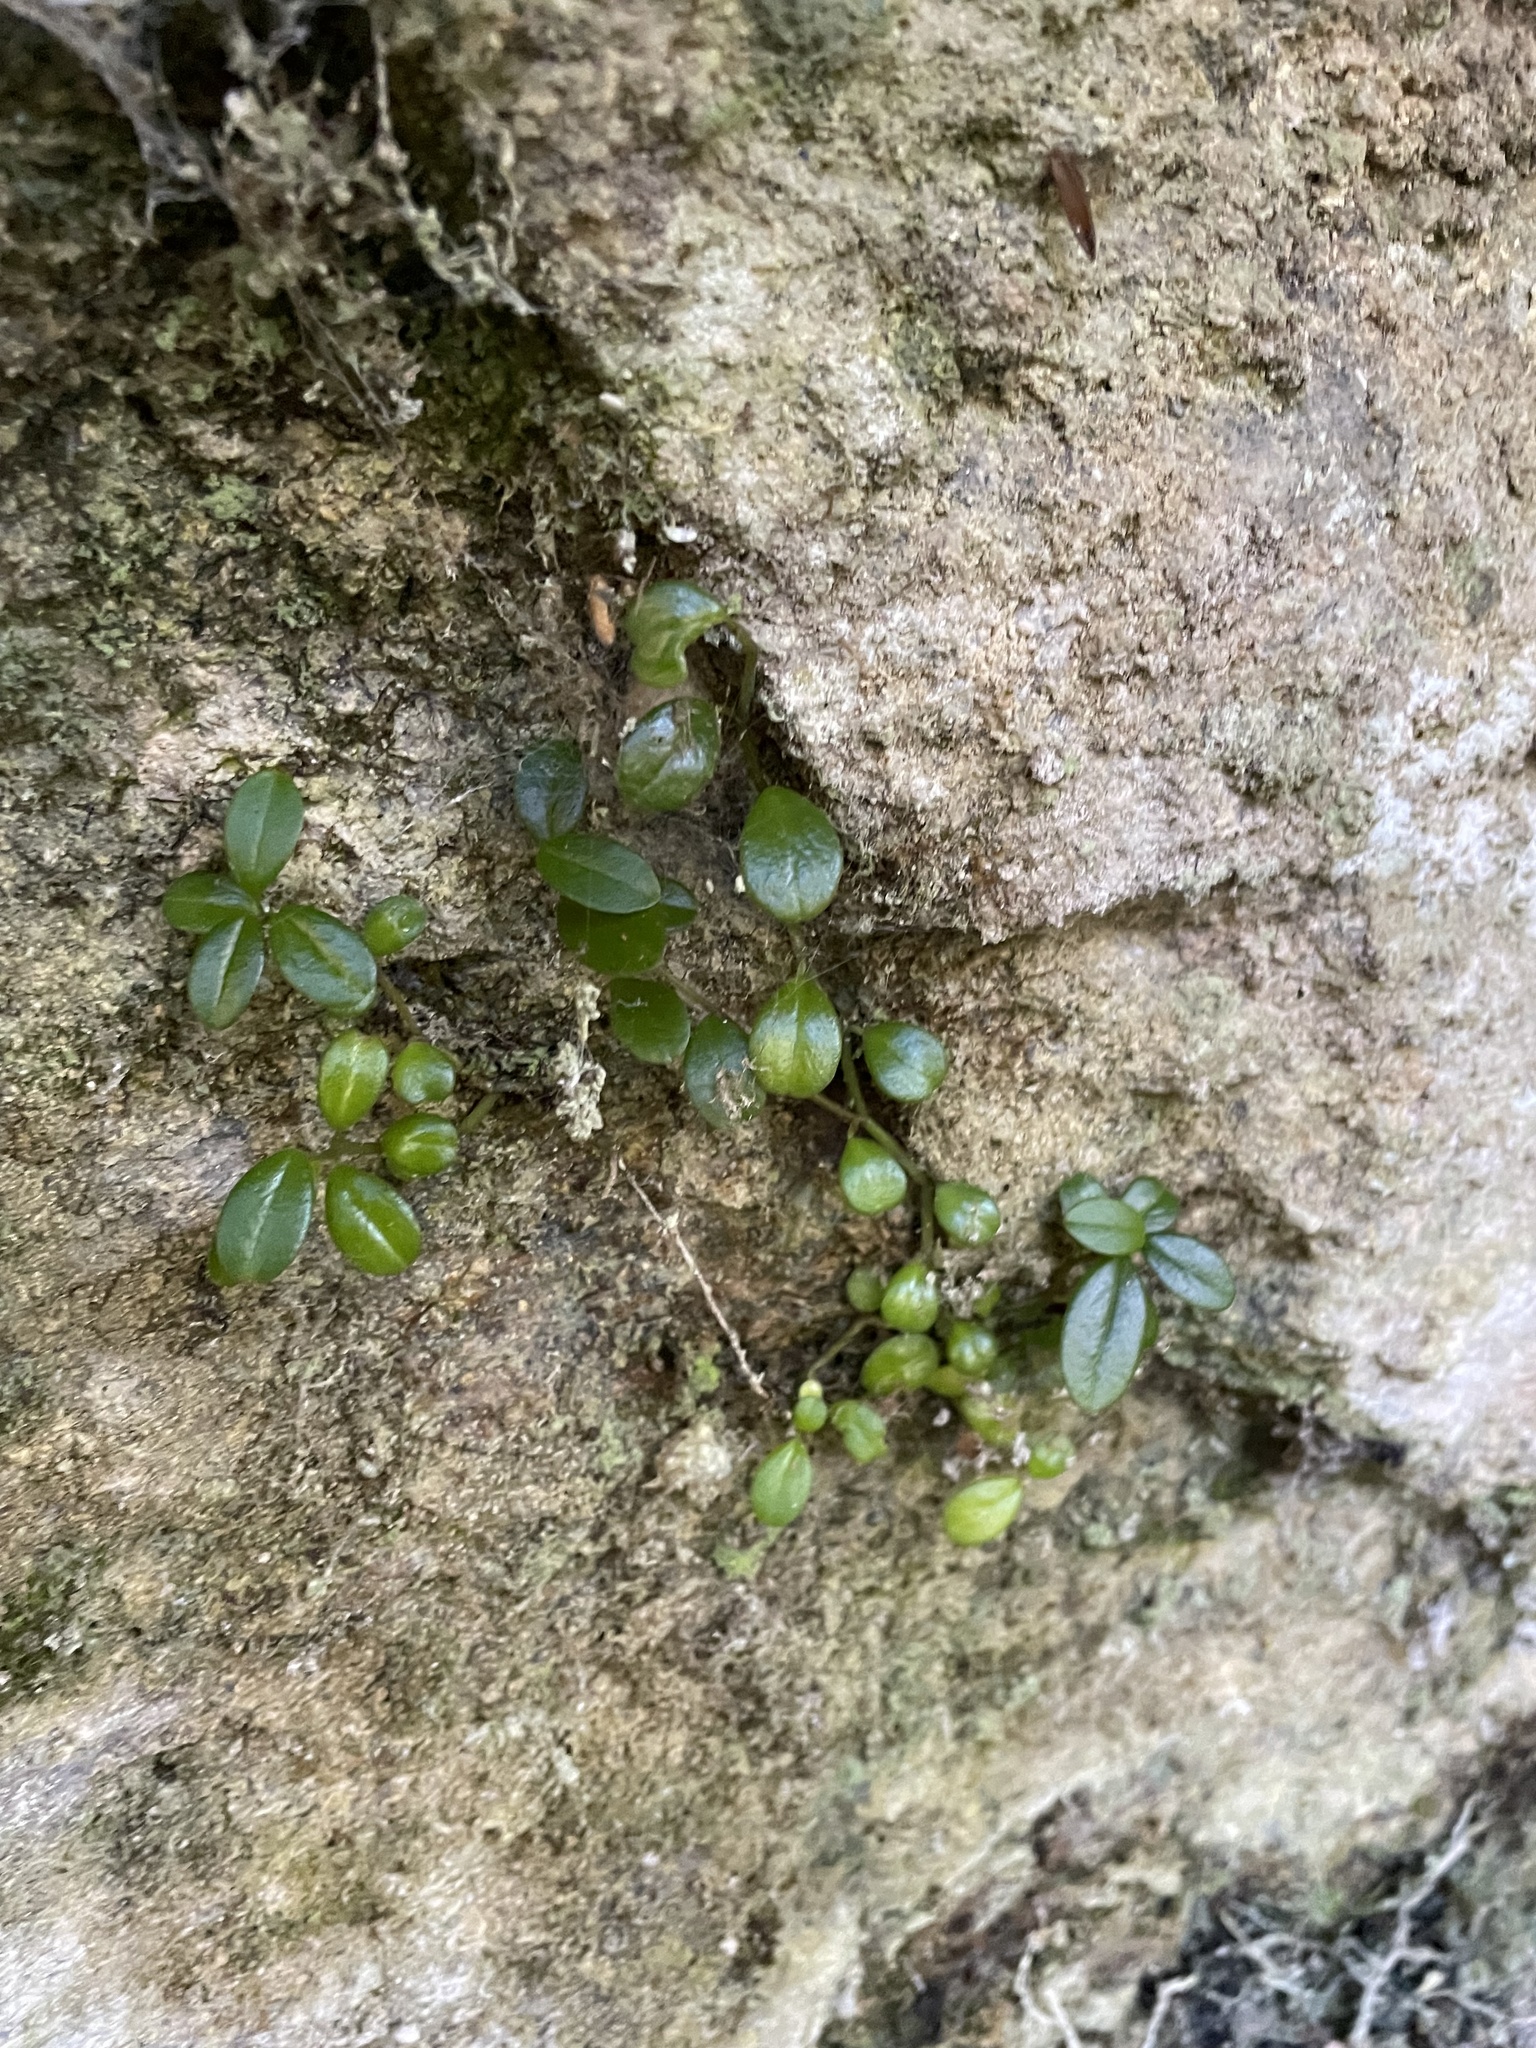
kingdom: Plantae
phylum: Tracheophyta
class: Magnoliopsida
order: Piperales
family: Piperaceae
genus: Peperomia
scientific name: Peperomia retusa
